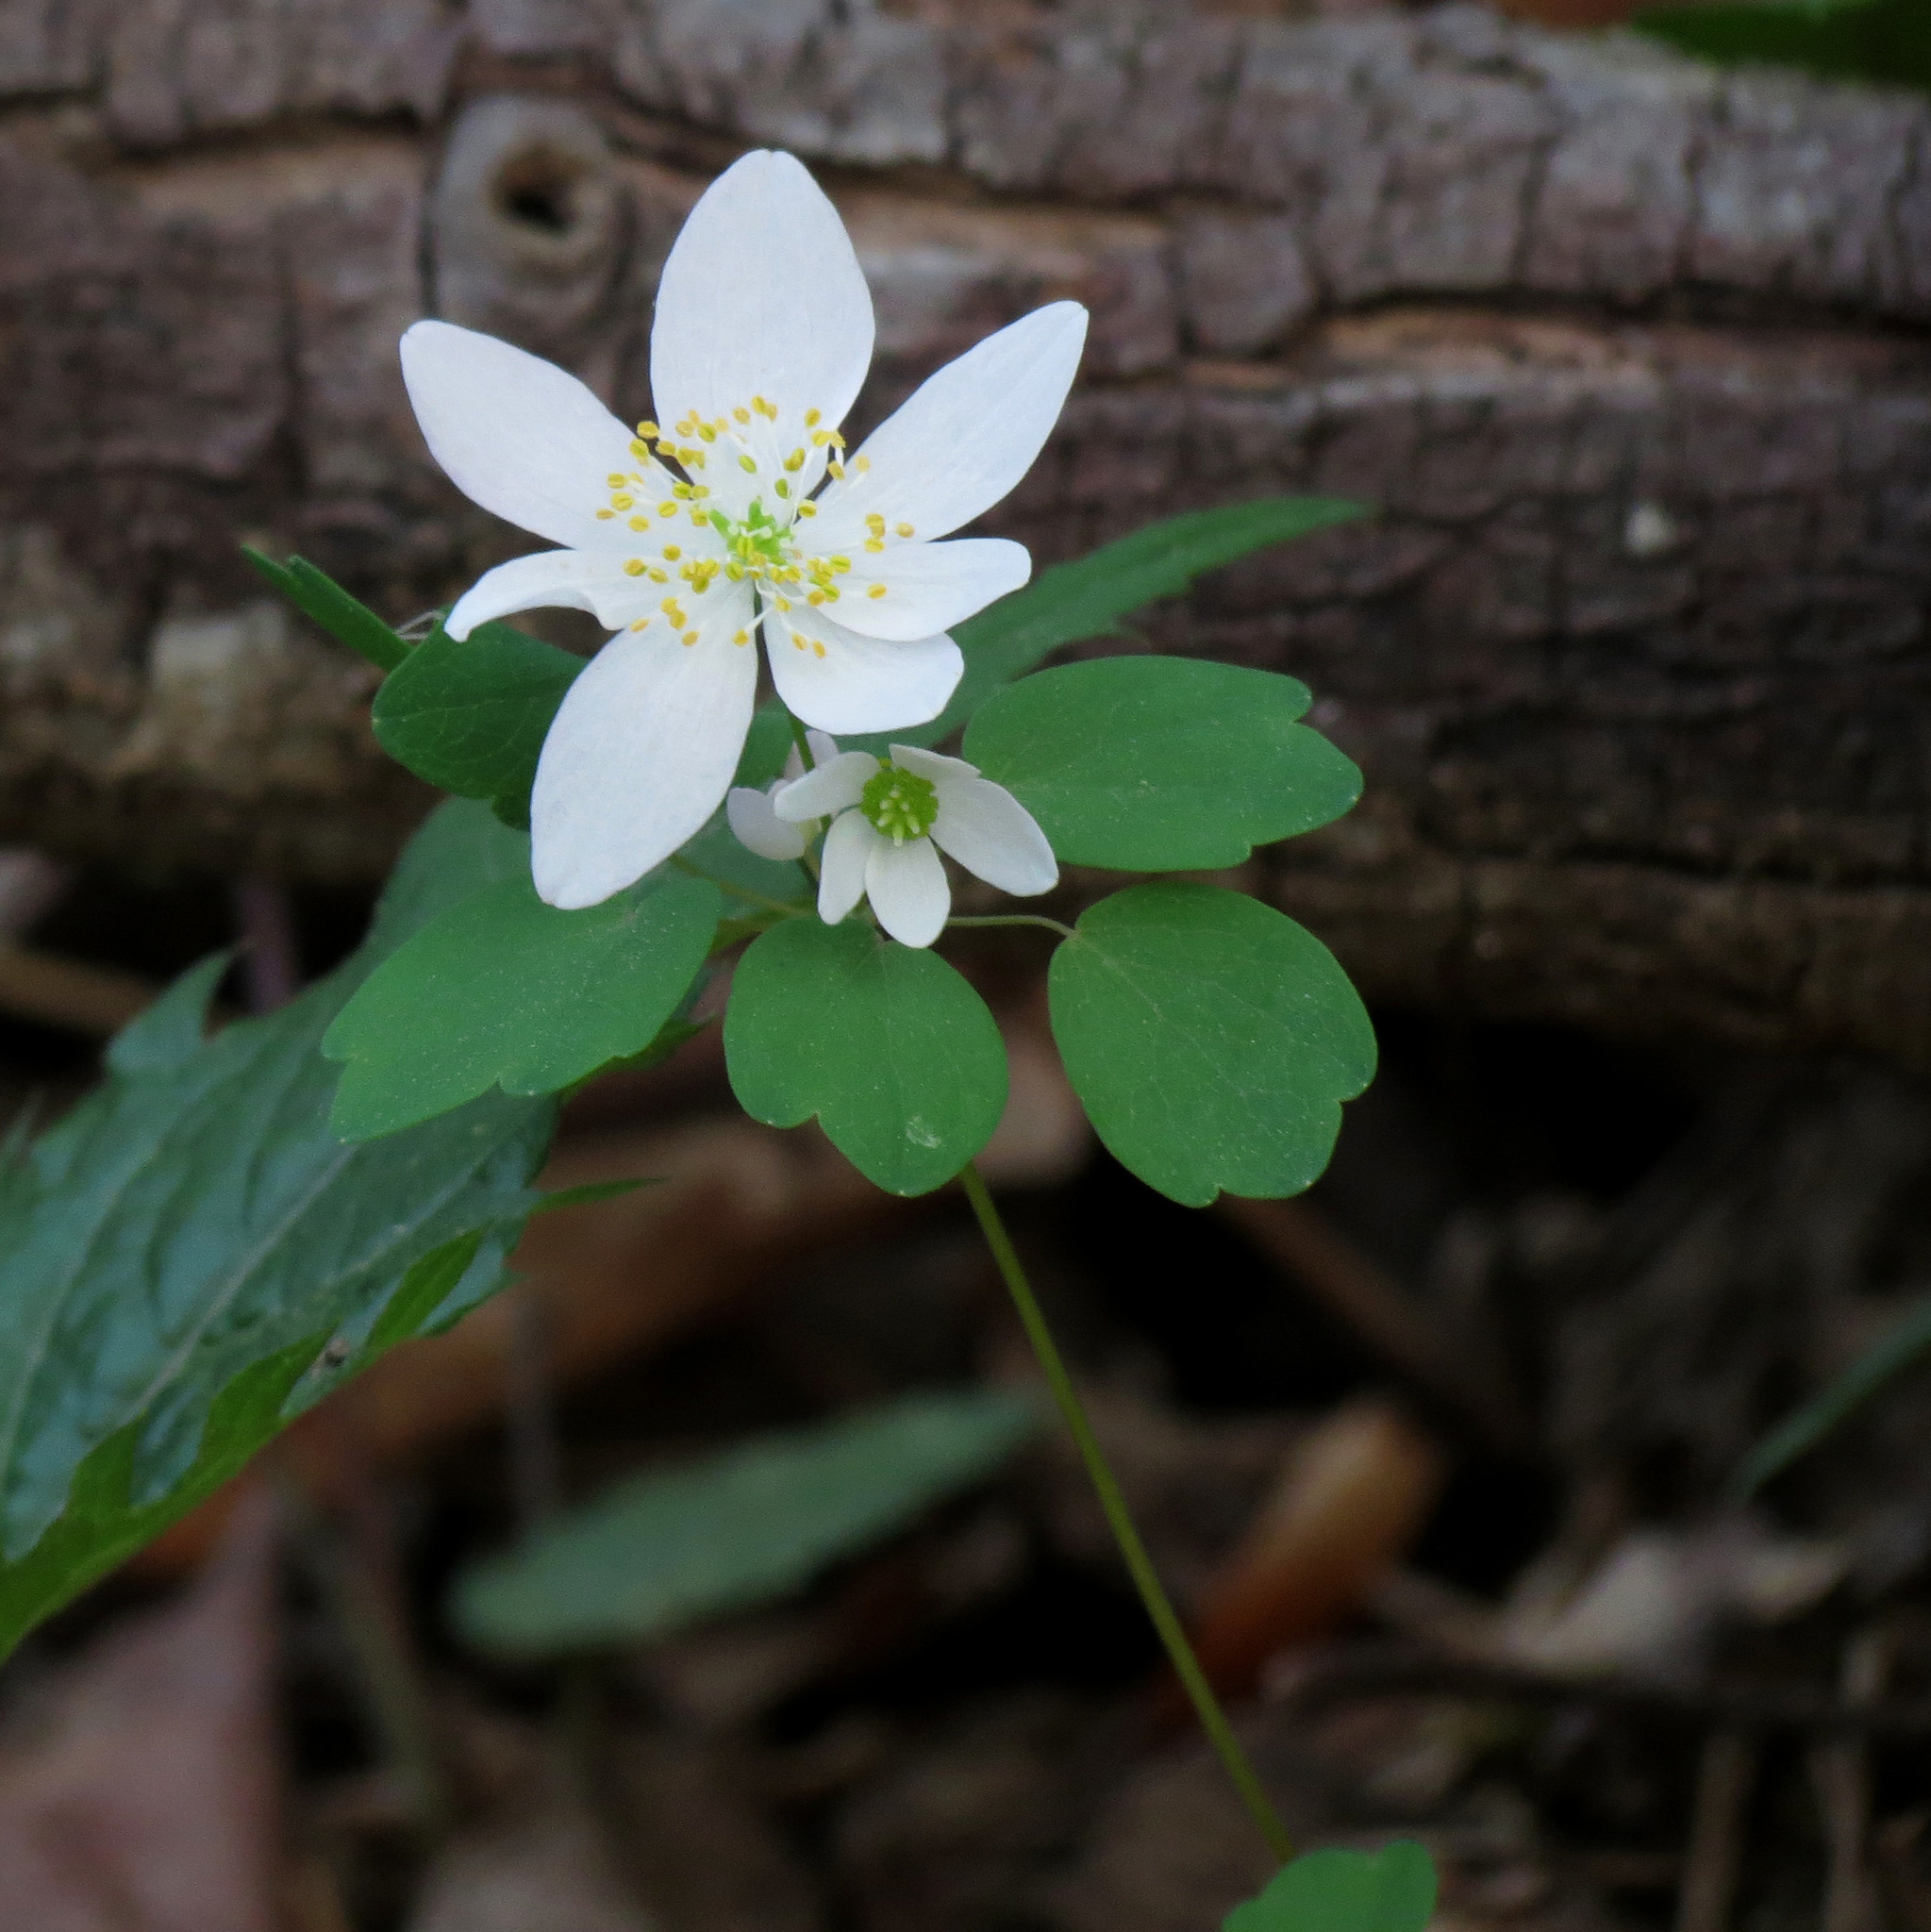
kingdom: Plantae
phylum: Tracheophyta
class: Magnoliopsida
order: Ranunculales
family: Ranunculaceae
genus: Thalictrum
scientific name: Thalictrum thalictroides
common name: Rue-anemone
